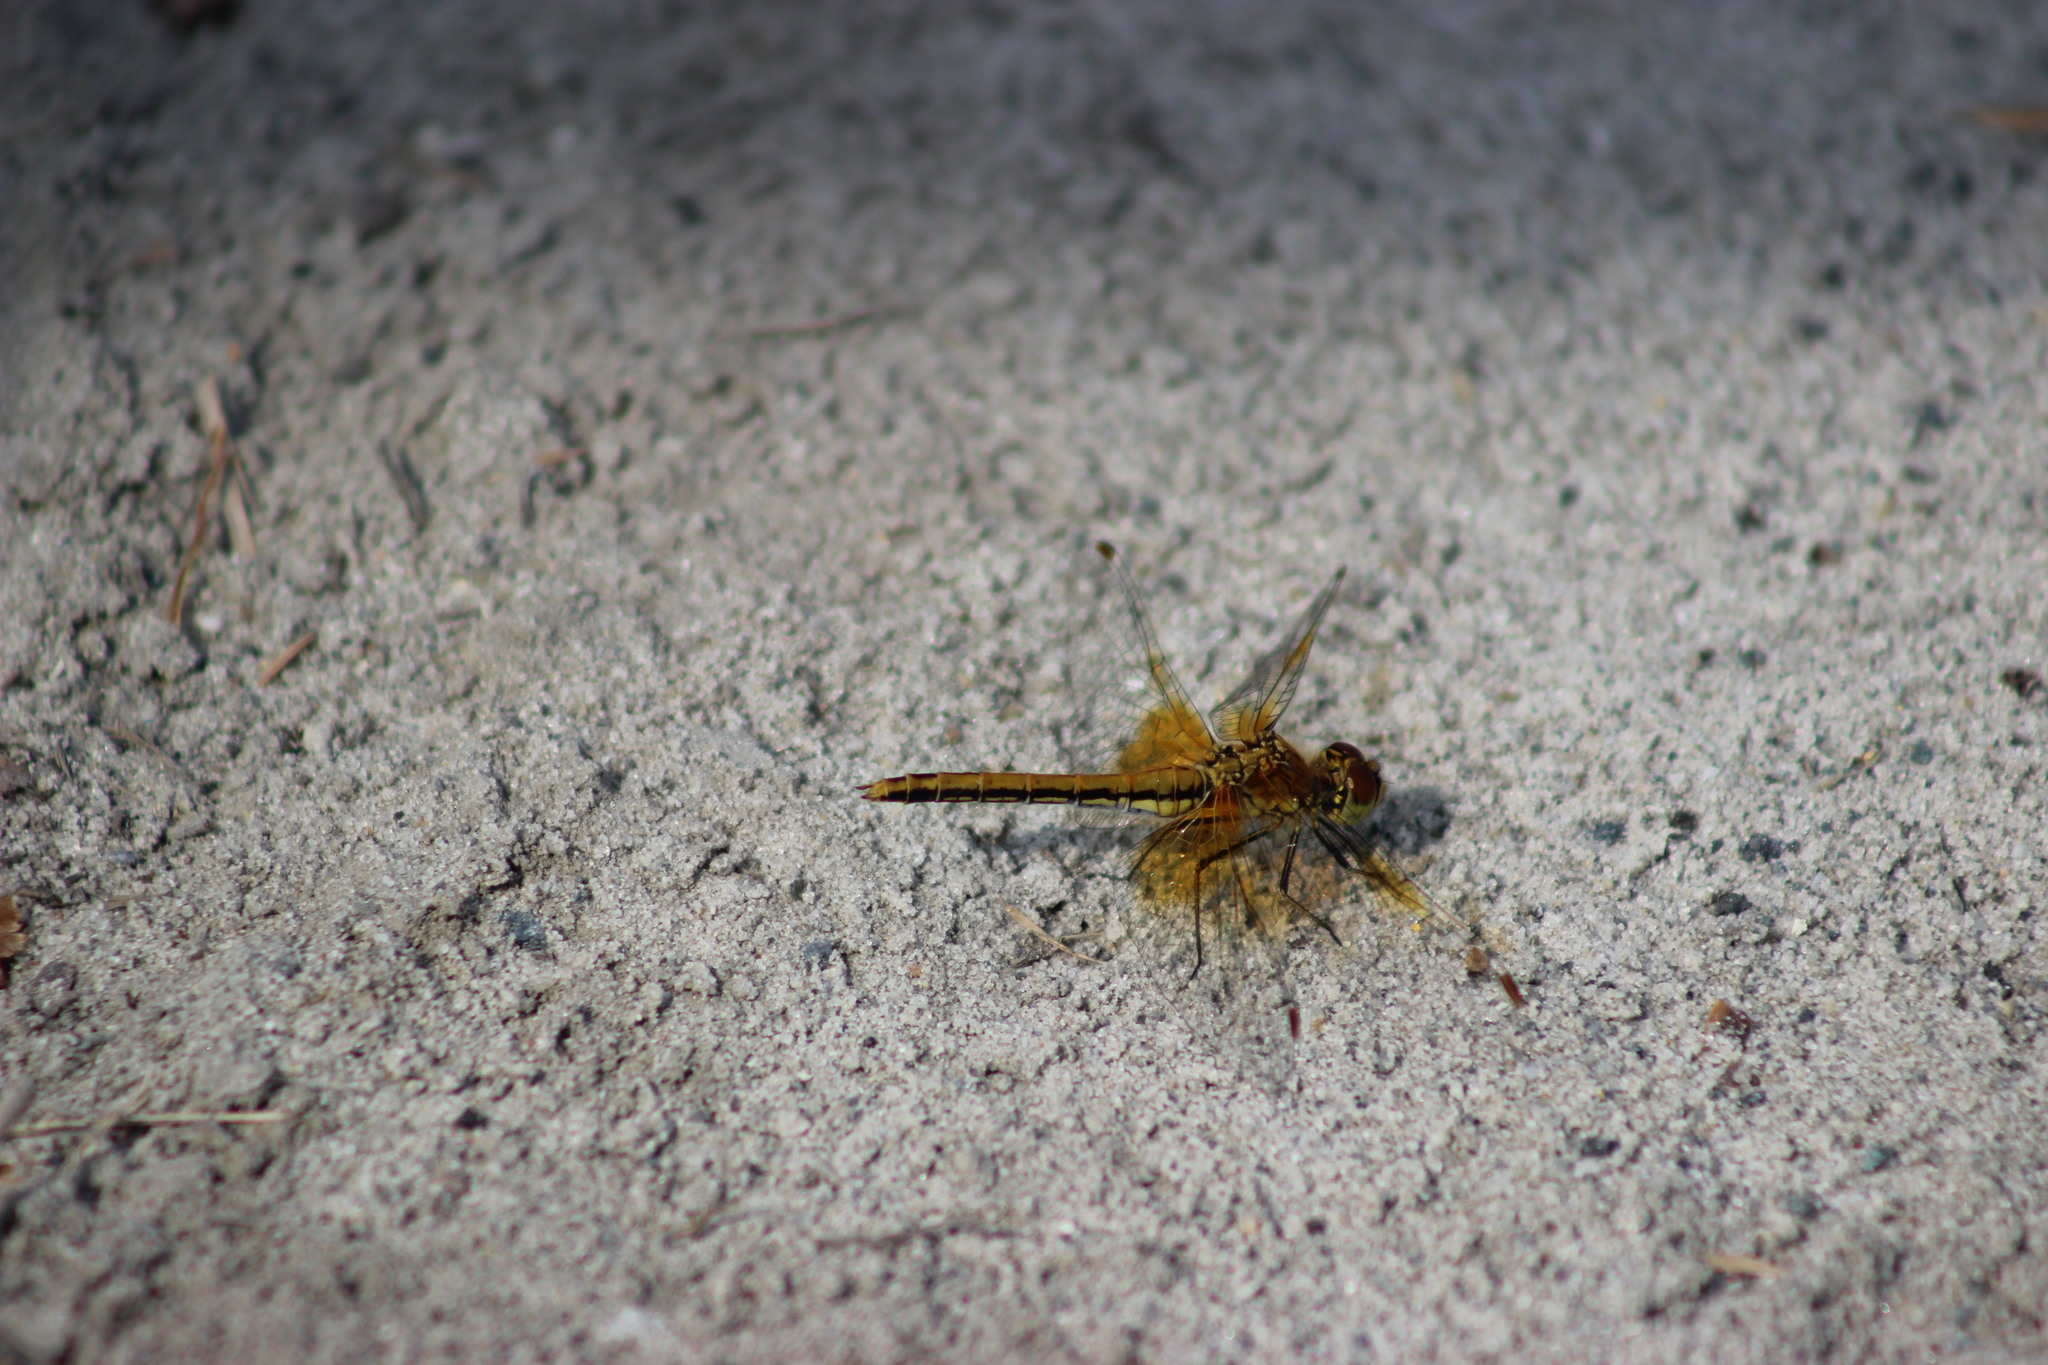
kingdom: Animalia
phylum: Arthropoda
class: Insecta
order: Odonata
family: Libellulidae
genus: Sympetrum
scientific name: Sympetrum flaveolum
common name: Yellow-winged darter
